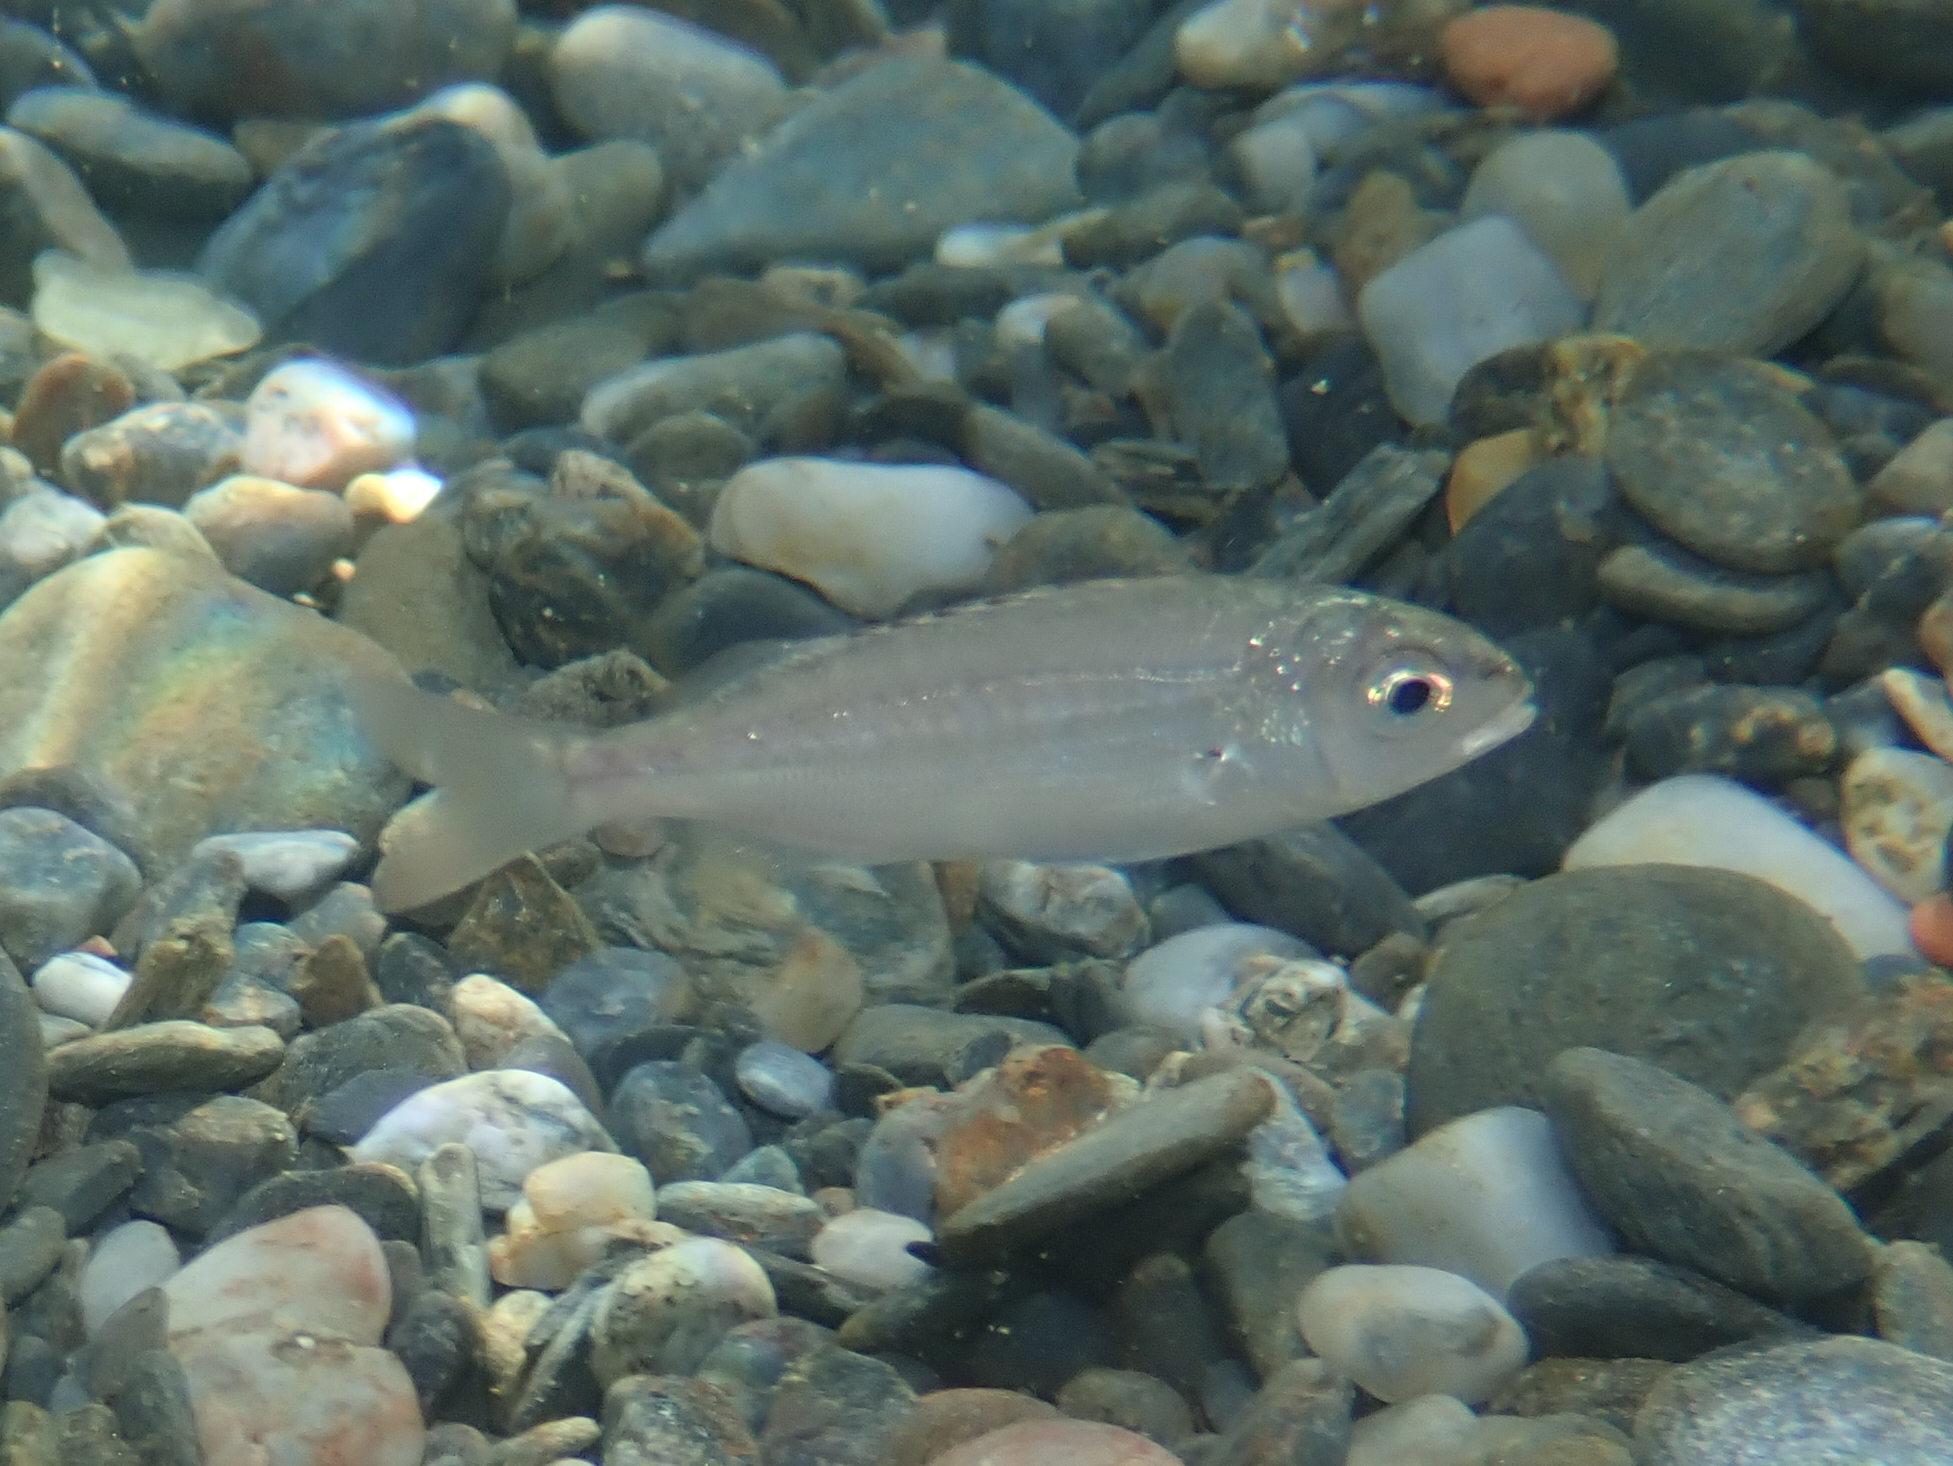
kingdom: Animalia
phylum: Chordata
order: Perciformes
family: Sparidae
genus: Pagellus
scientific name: Pagellus acarne
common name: Axillary sea-bream
